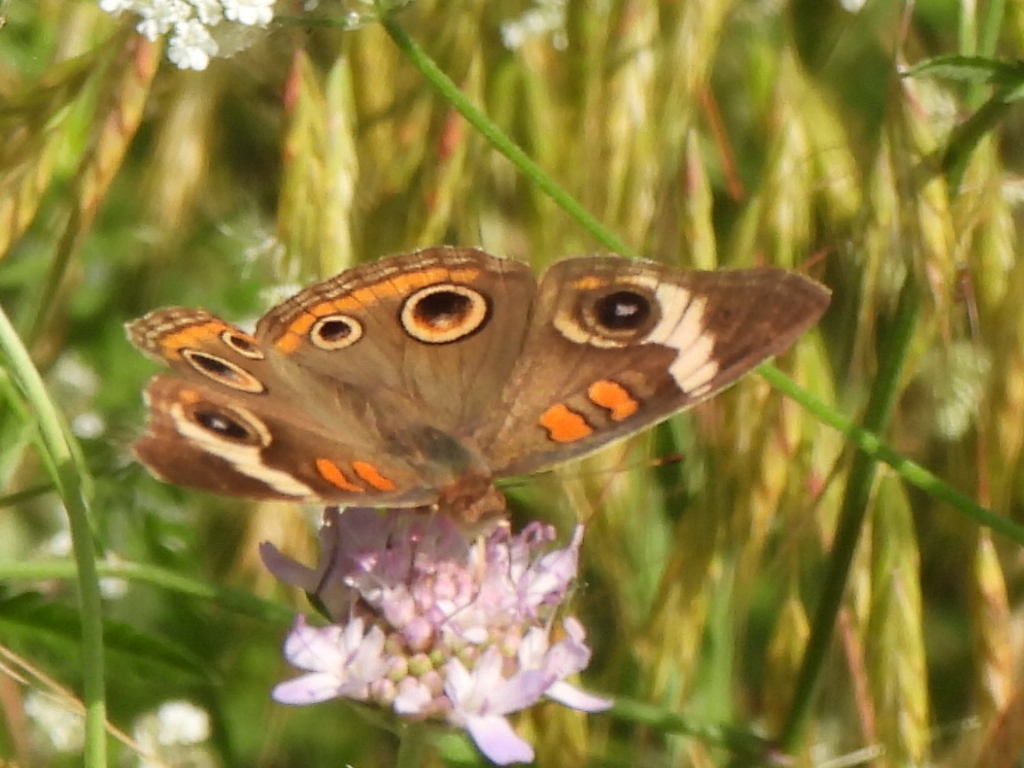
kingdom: Animalia
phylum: Arthropoda
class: Insecta
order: Lepidoptera
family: Nymphalidae
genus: Junonia
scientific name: Junonia coenia
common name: Common buckeye
